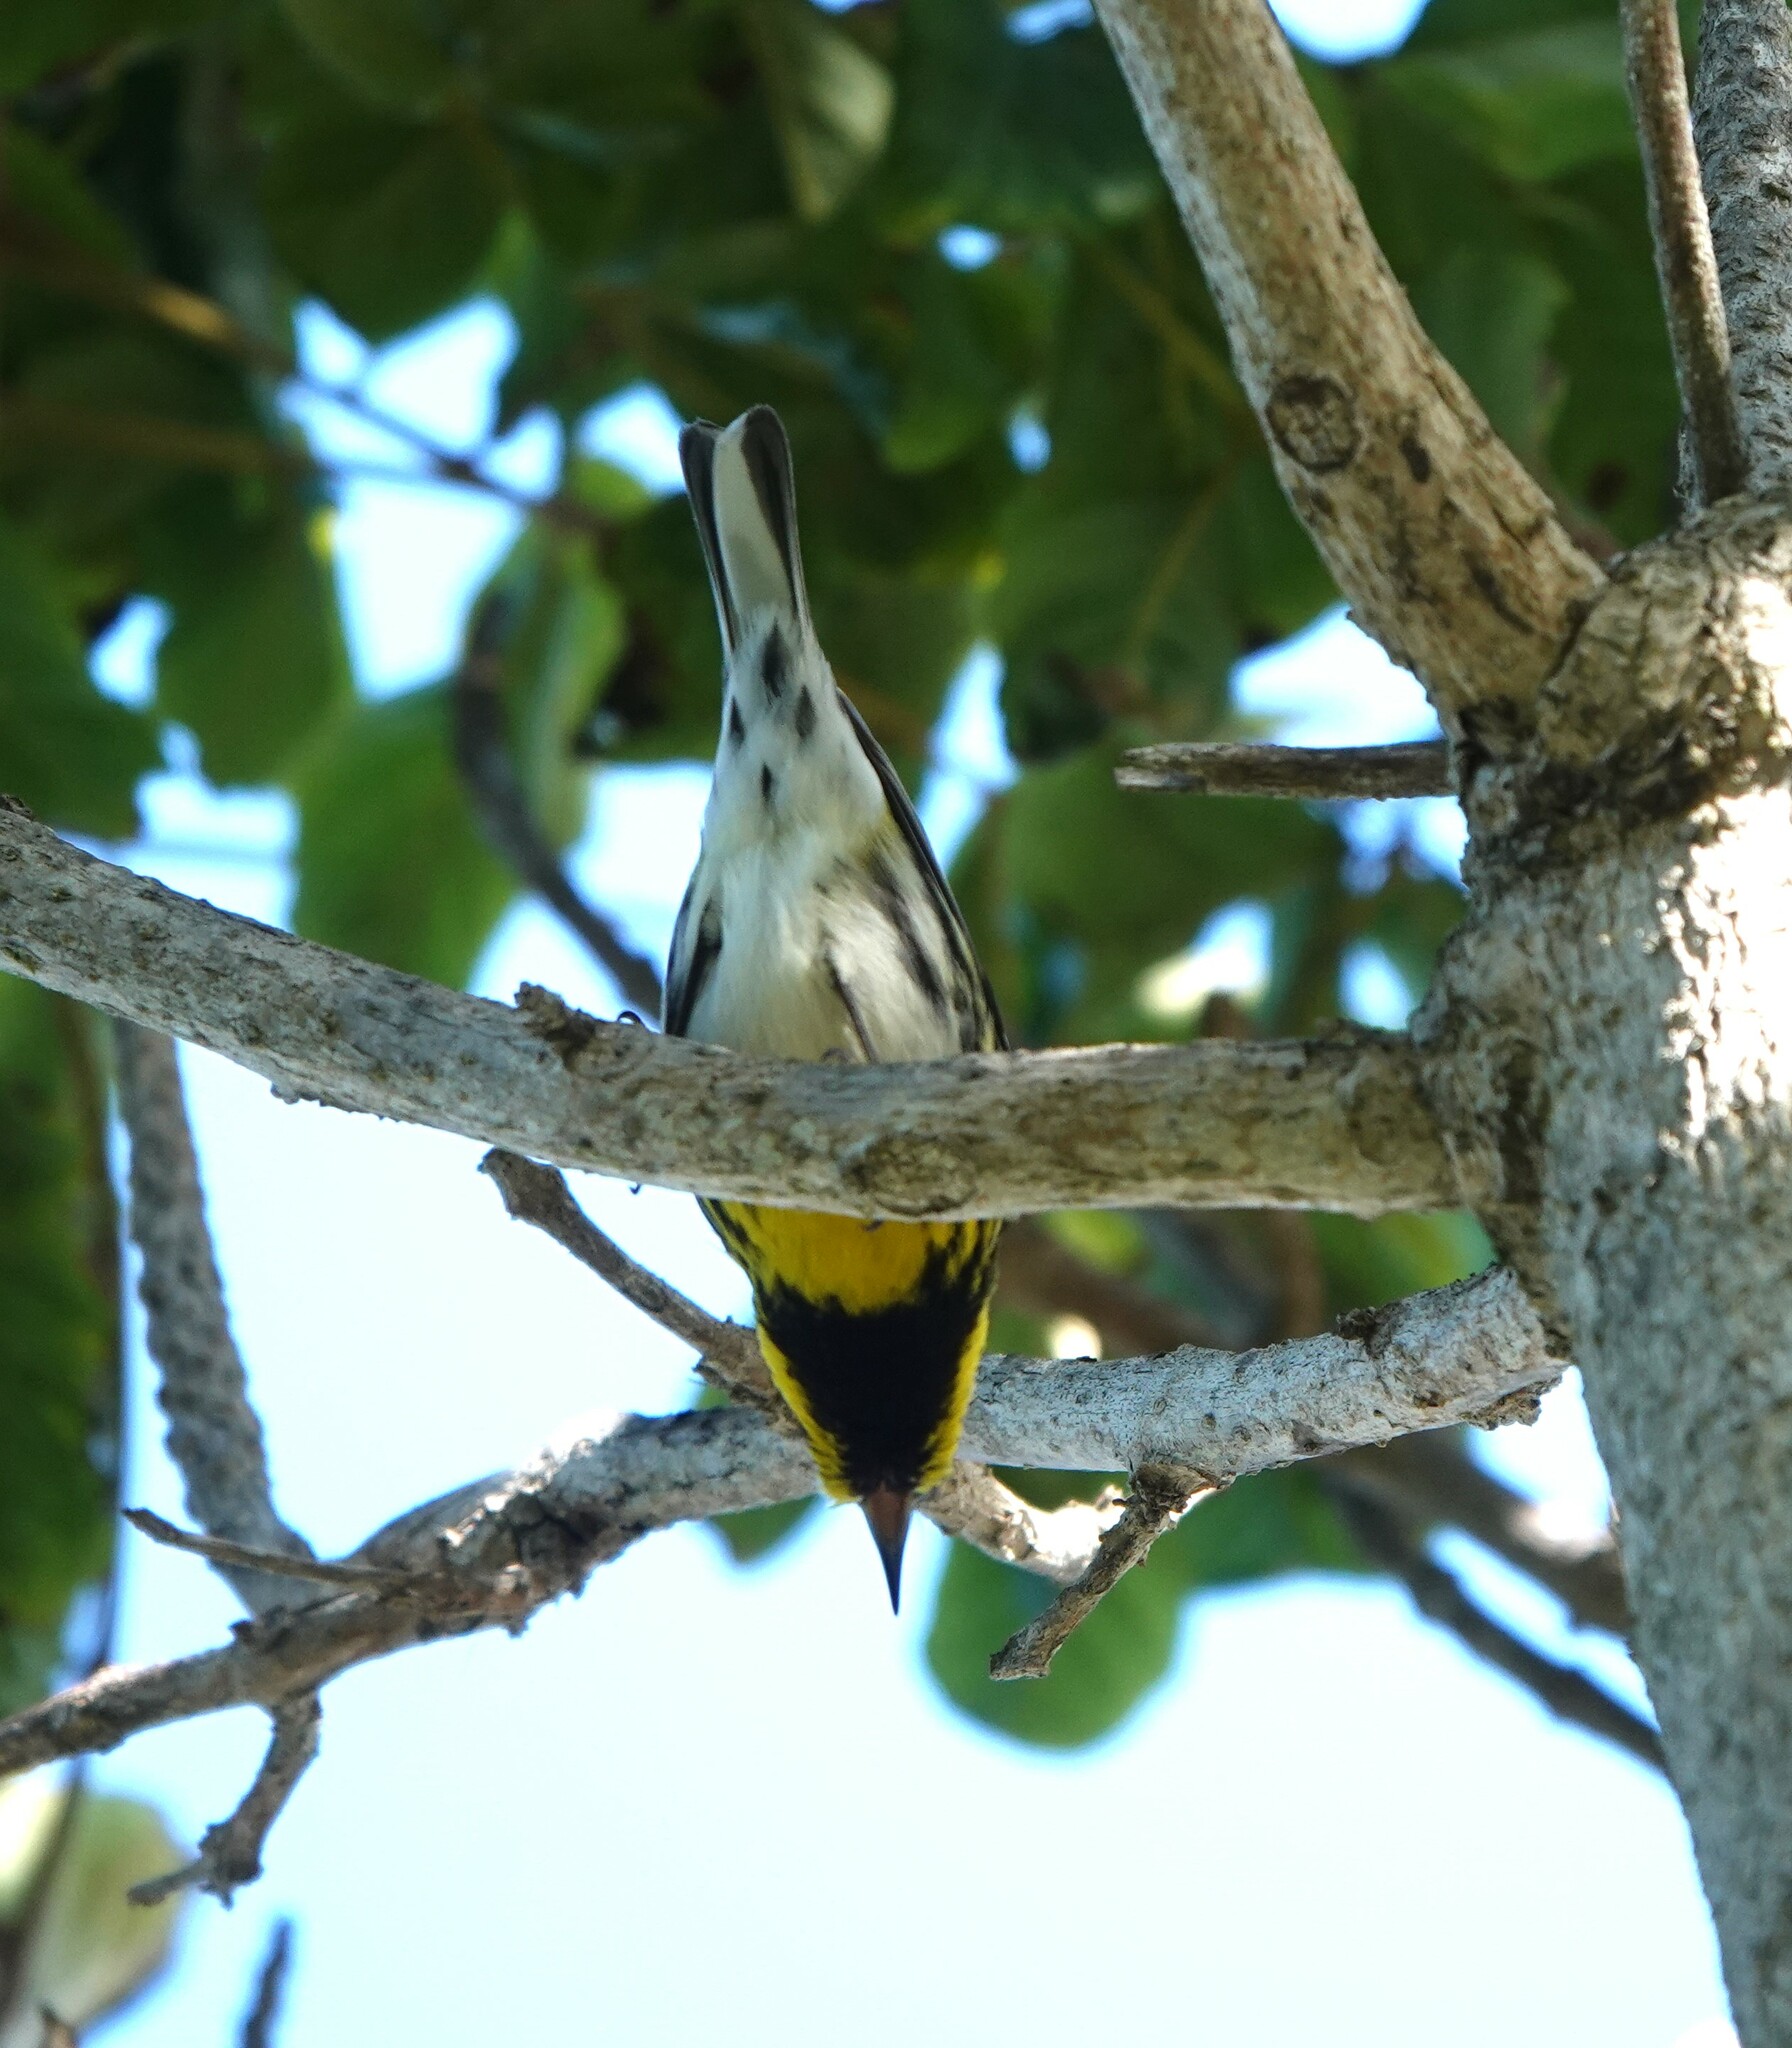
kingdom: Animalia
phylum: Chordata
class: Aves
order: Passeriformes
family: Parulidae
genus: Setophaga
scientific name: Setophaga townsendi
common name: Townsend's warbler
